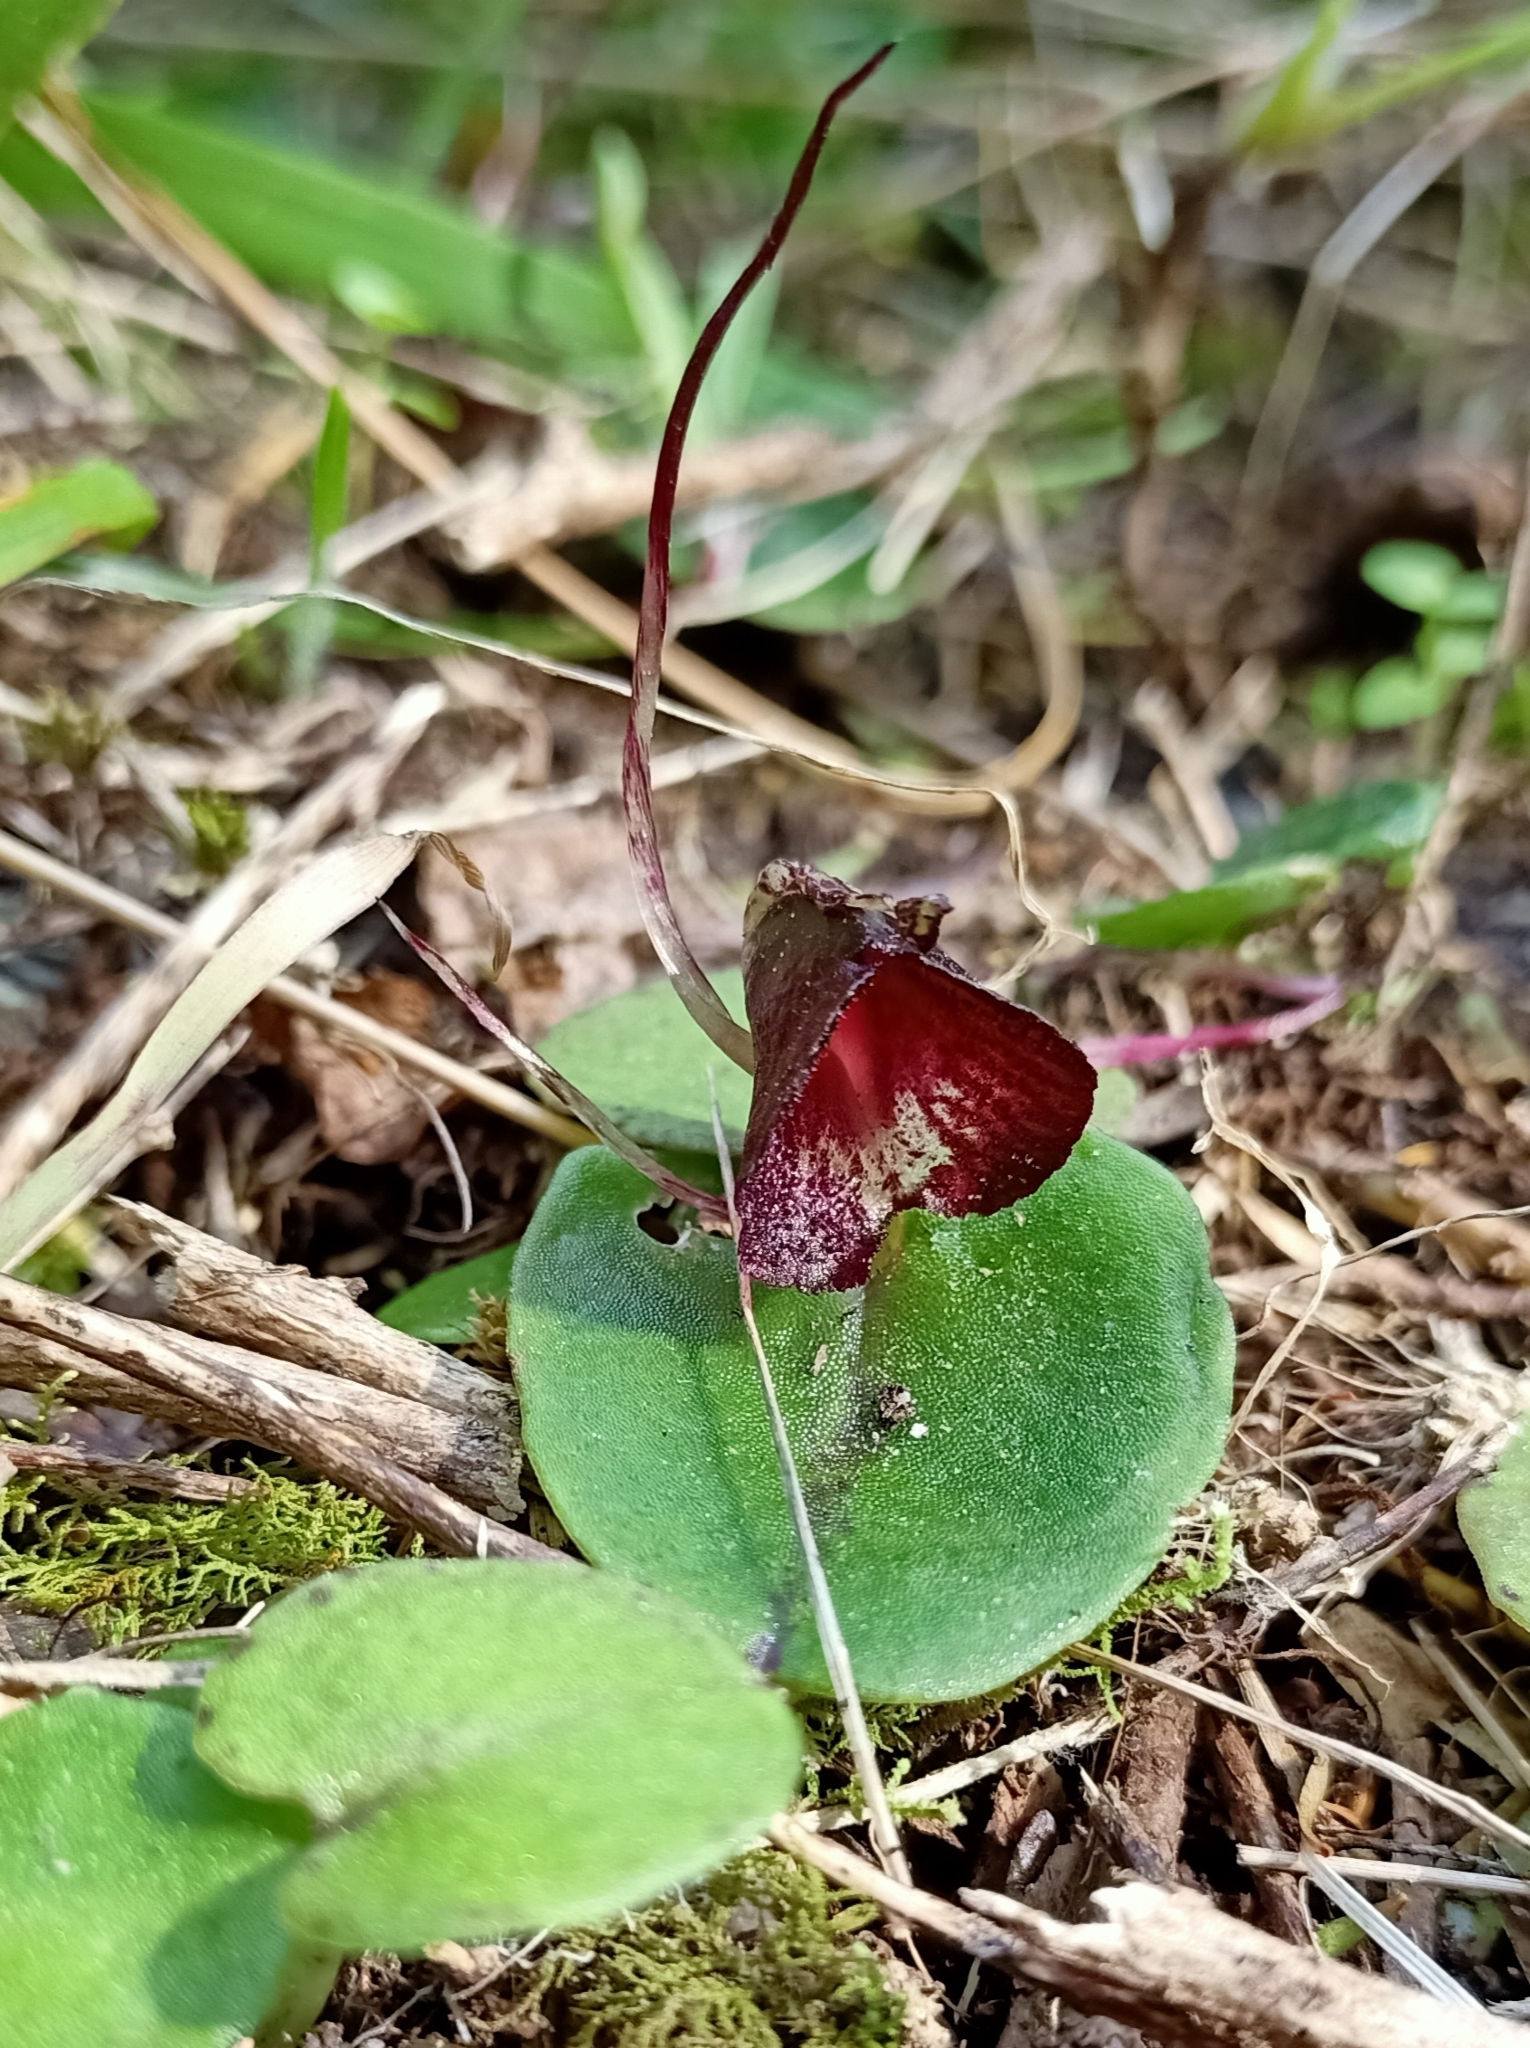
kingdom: Plantae
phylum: Tracheophyta
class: Liliopsida
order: Asparagales
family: Orchidaceae
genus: Corybas
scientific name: Corybas macranthus
